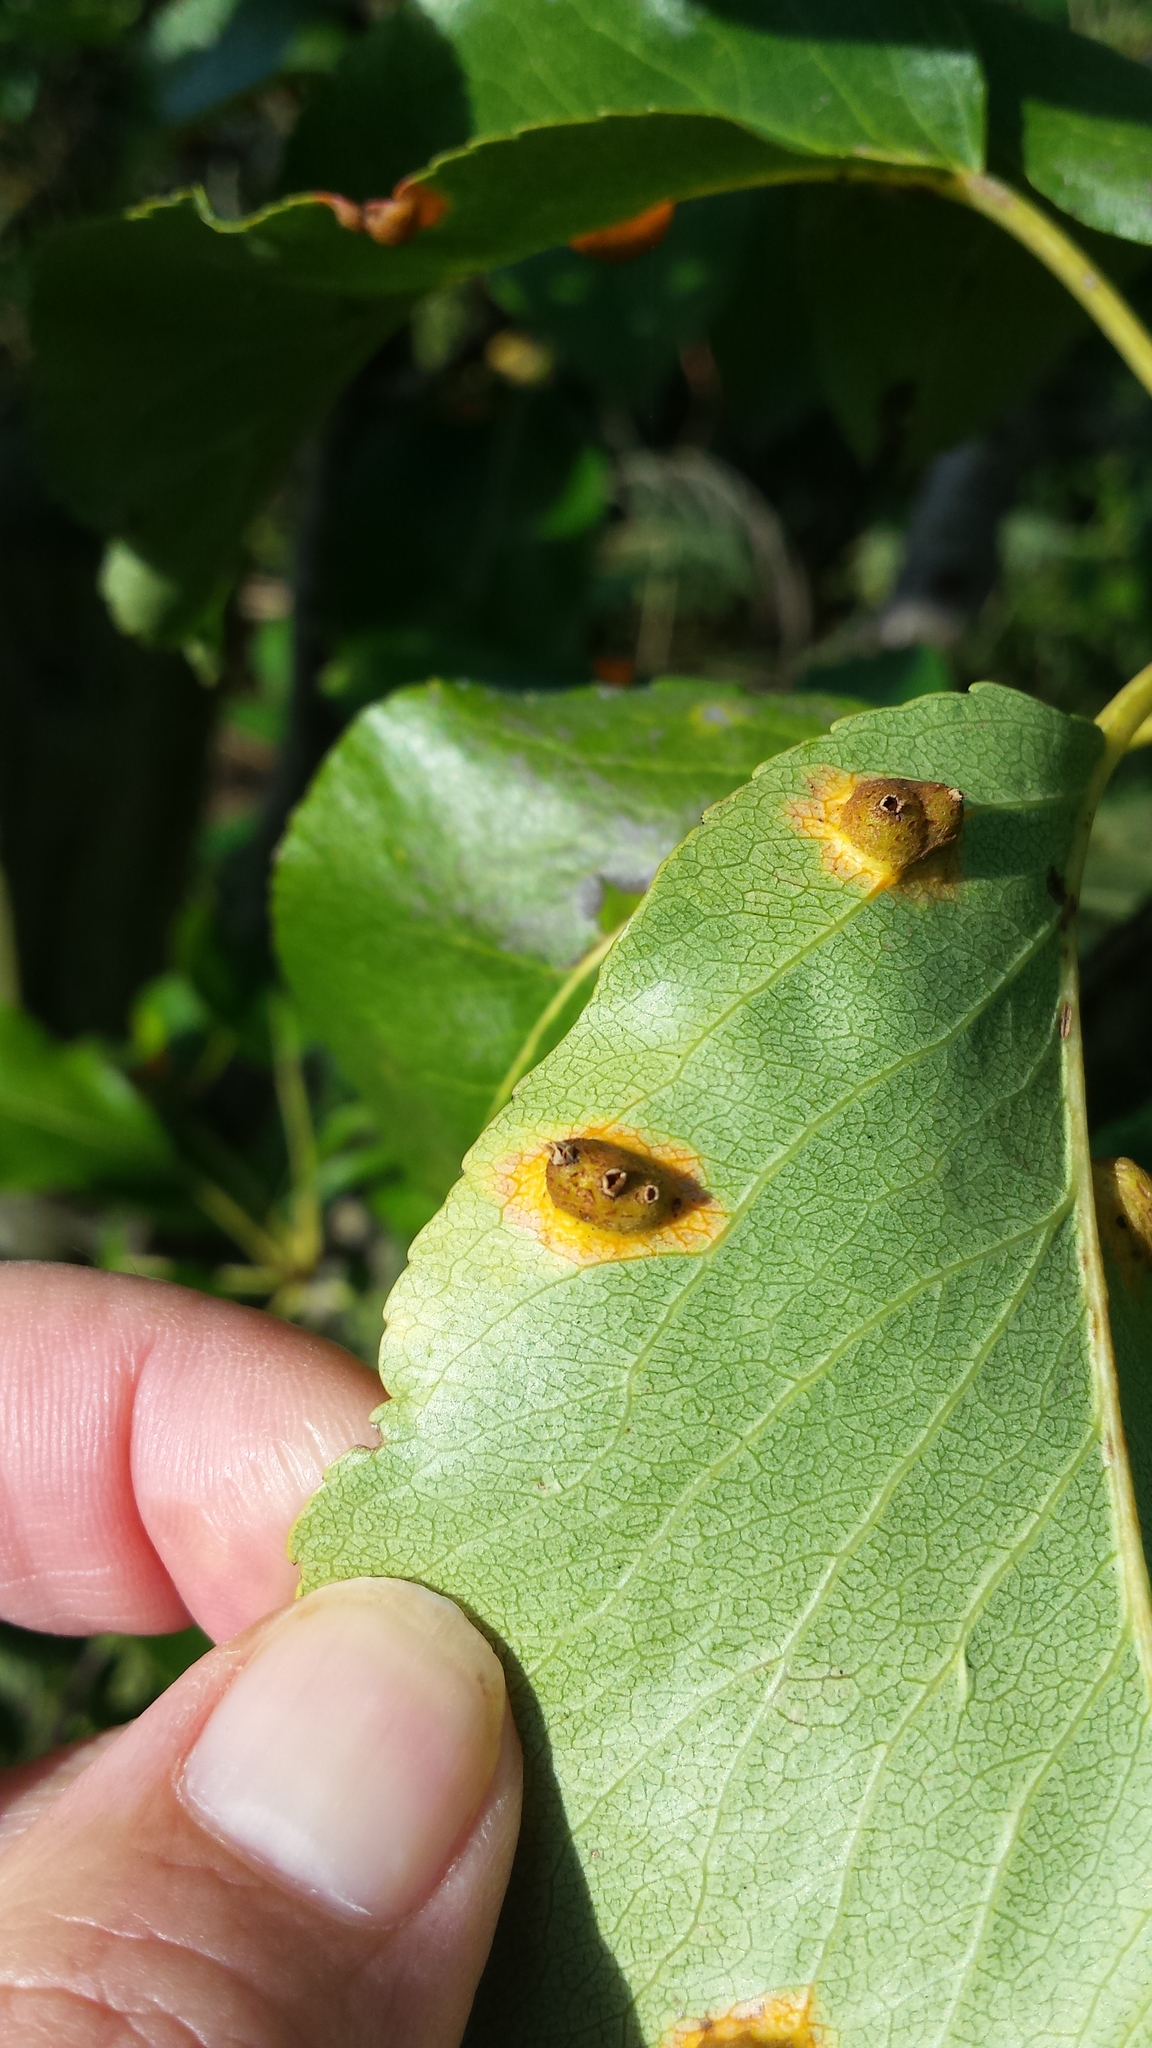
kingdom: Fungi
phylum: Basidiomycota
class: Pucciniomycetes
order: Pucciniales
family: Gymnosporangiaceae
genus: Gymnosporangium
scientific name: Gymnosporangium sabinae
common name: Pear trellis rust fungus
